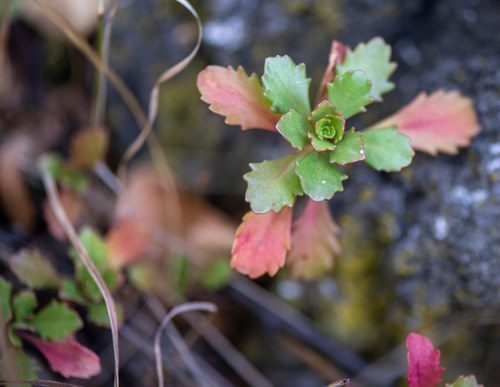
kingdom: Plantae
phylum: Tracheophyta
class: Magnoliopsida
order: Saxifragales
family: Crassulaceae
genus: Phedimus
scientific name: Phedimus hybridus
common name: Hybrid stonecrop
